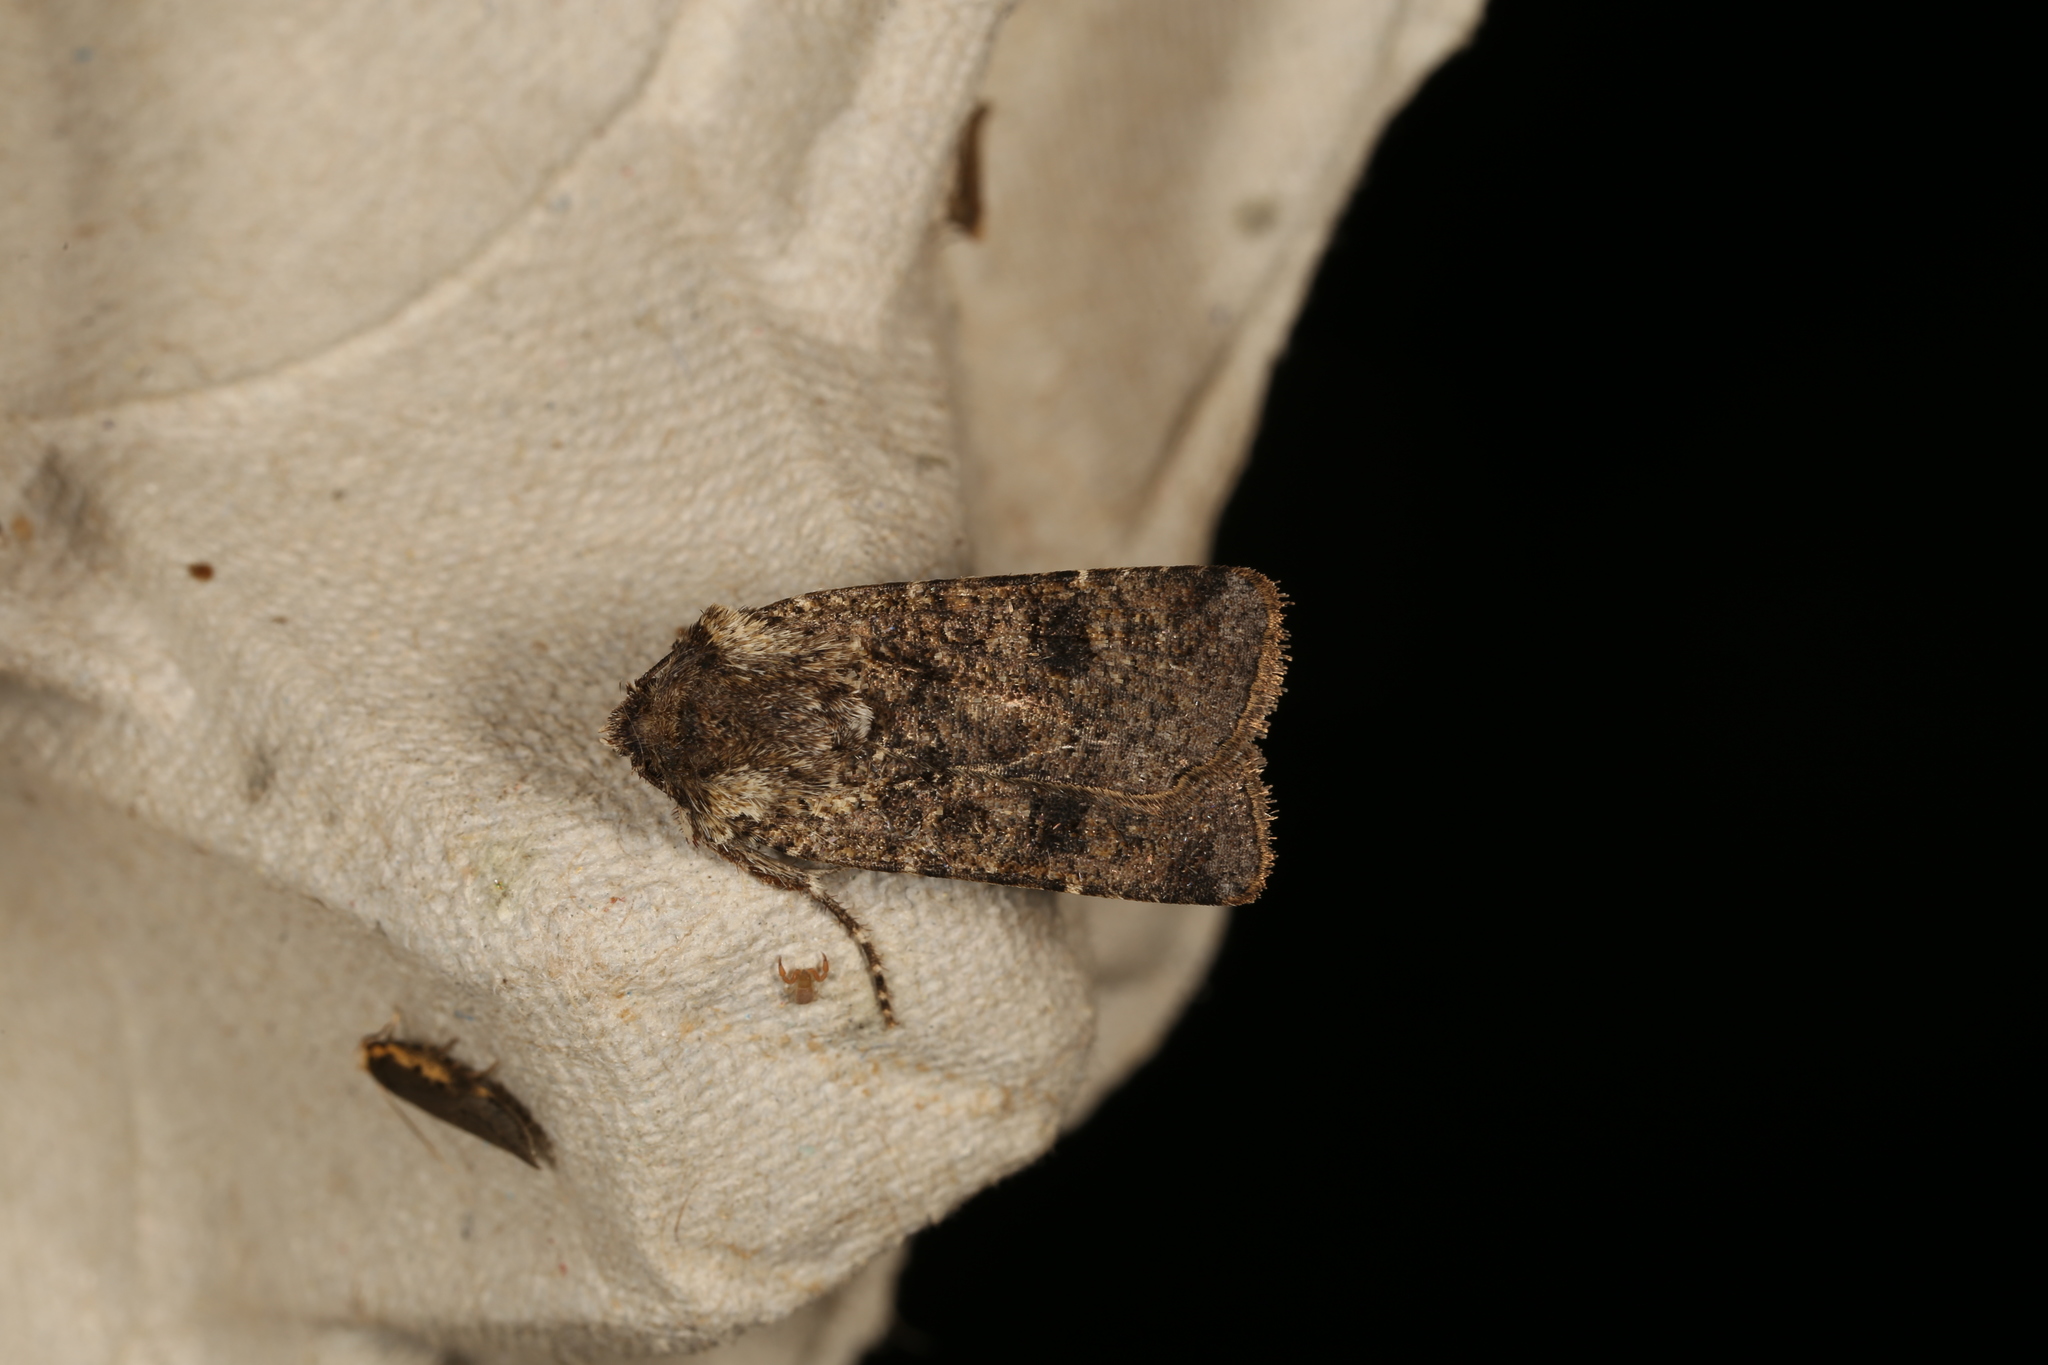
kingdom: Animalia
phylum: Arthropoda
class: Insecta
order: Lepidoptera
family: Noctuidae
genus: Agrotis
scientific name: Agrotis porphyricollis
